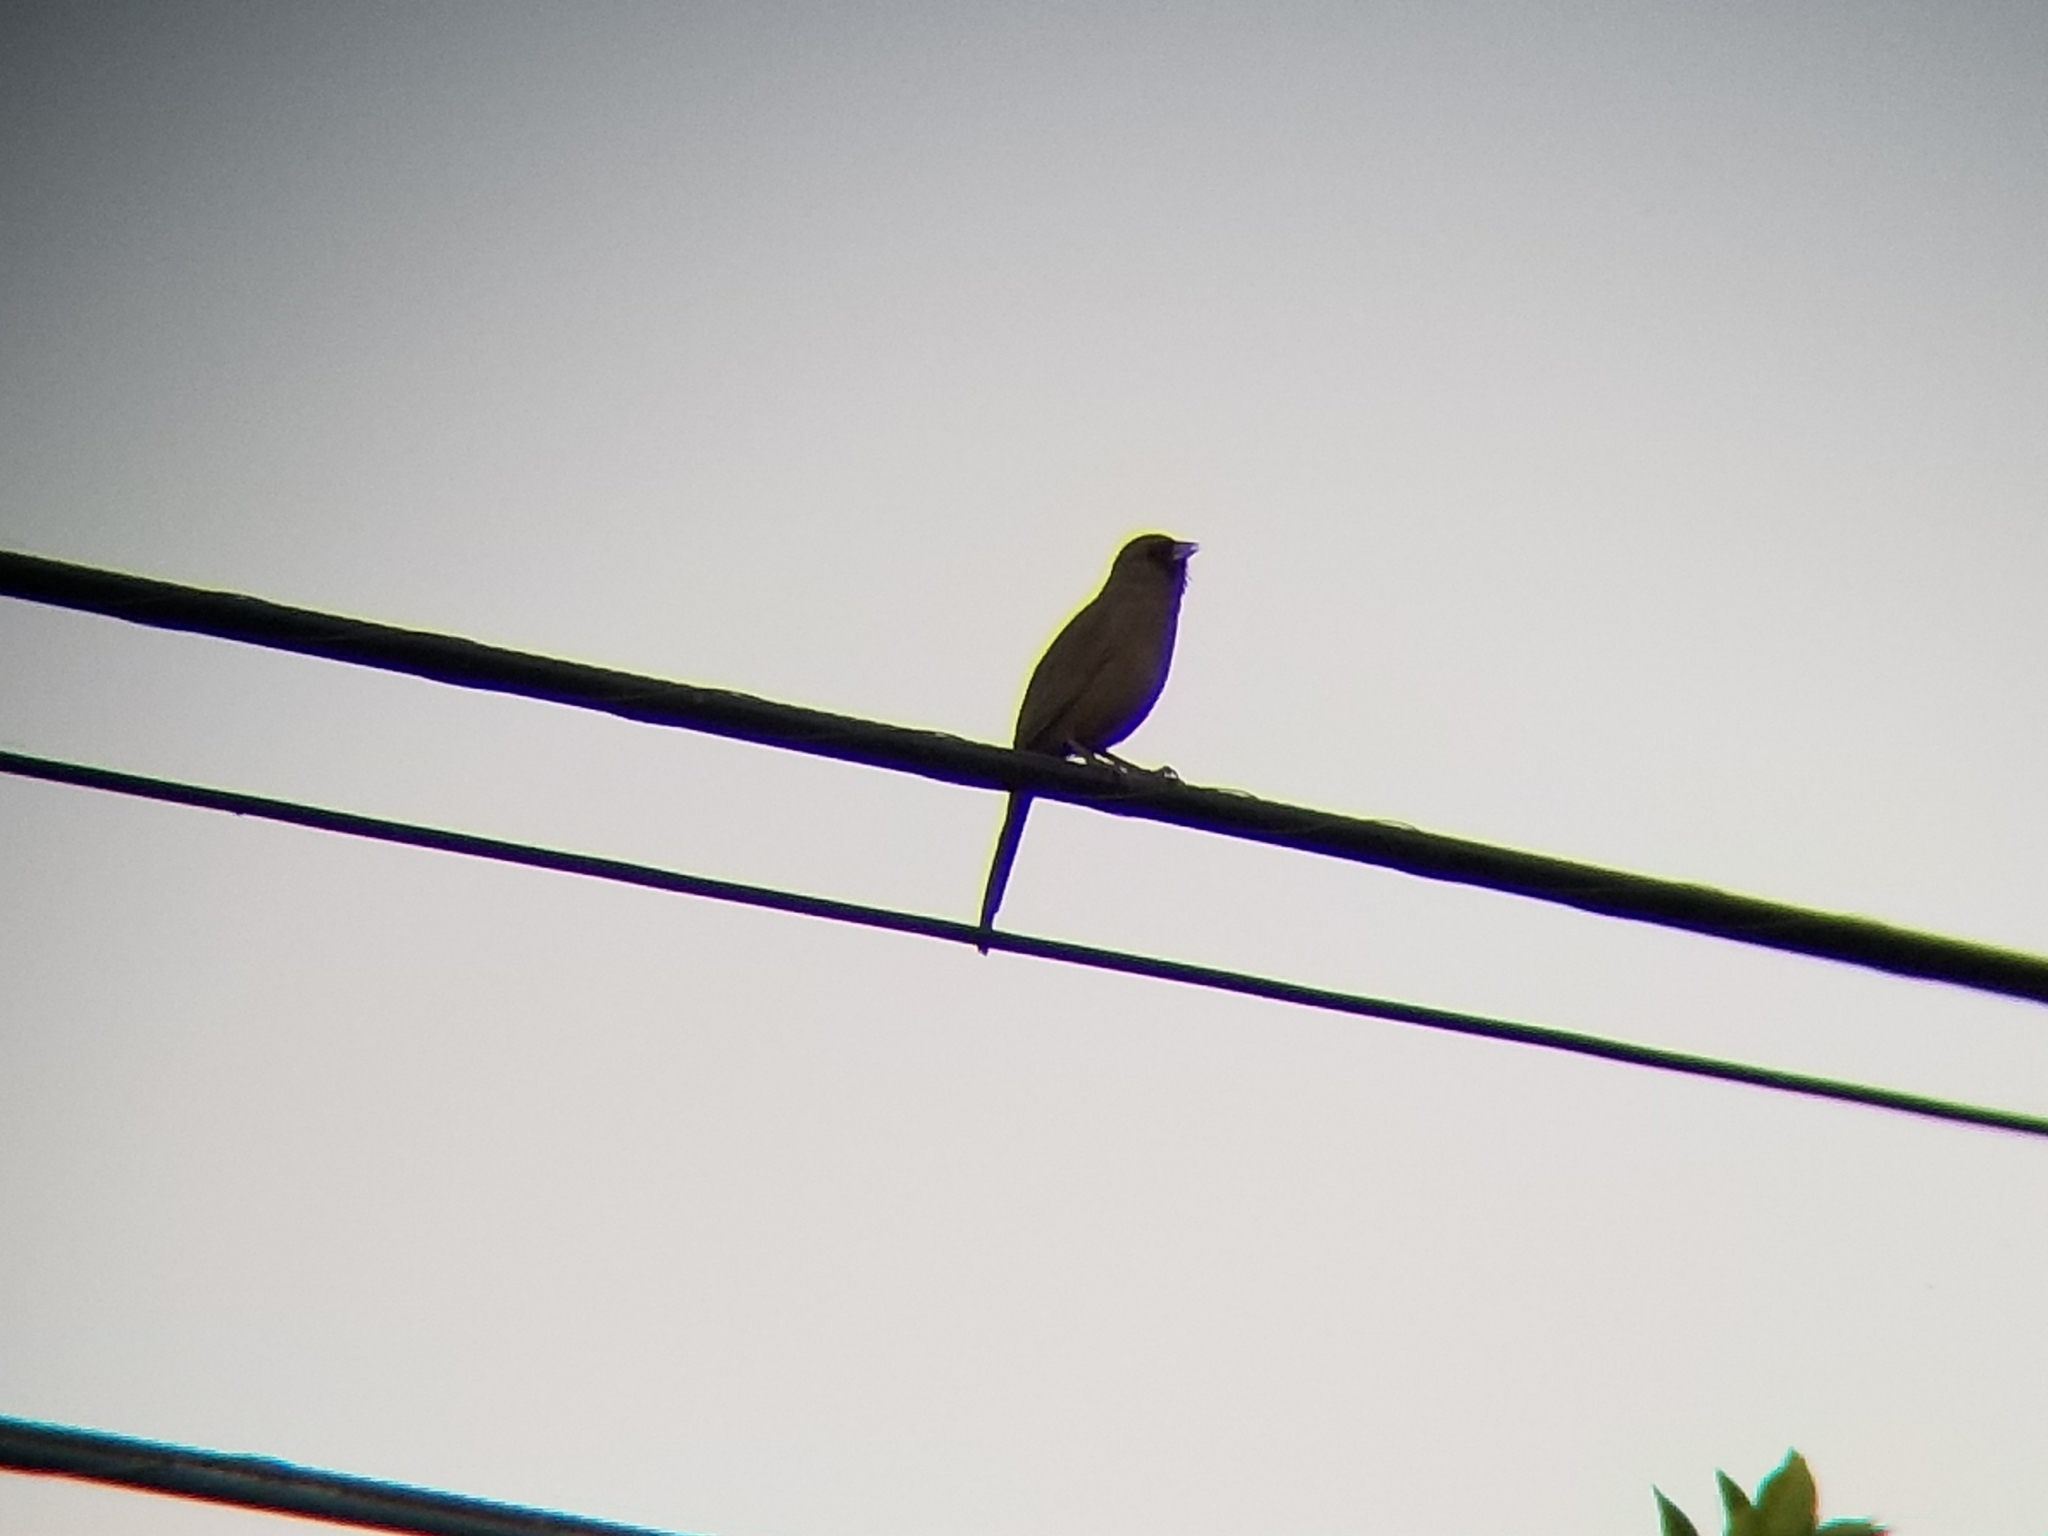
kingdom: Animalia
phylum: Chordata
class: Aves
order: Passeriformes
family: Passerellidae
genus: Melozone
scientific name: Melozone aberti
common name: Abert's towhee
